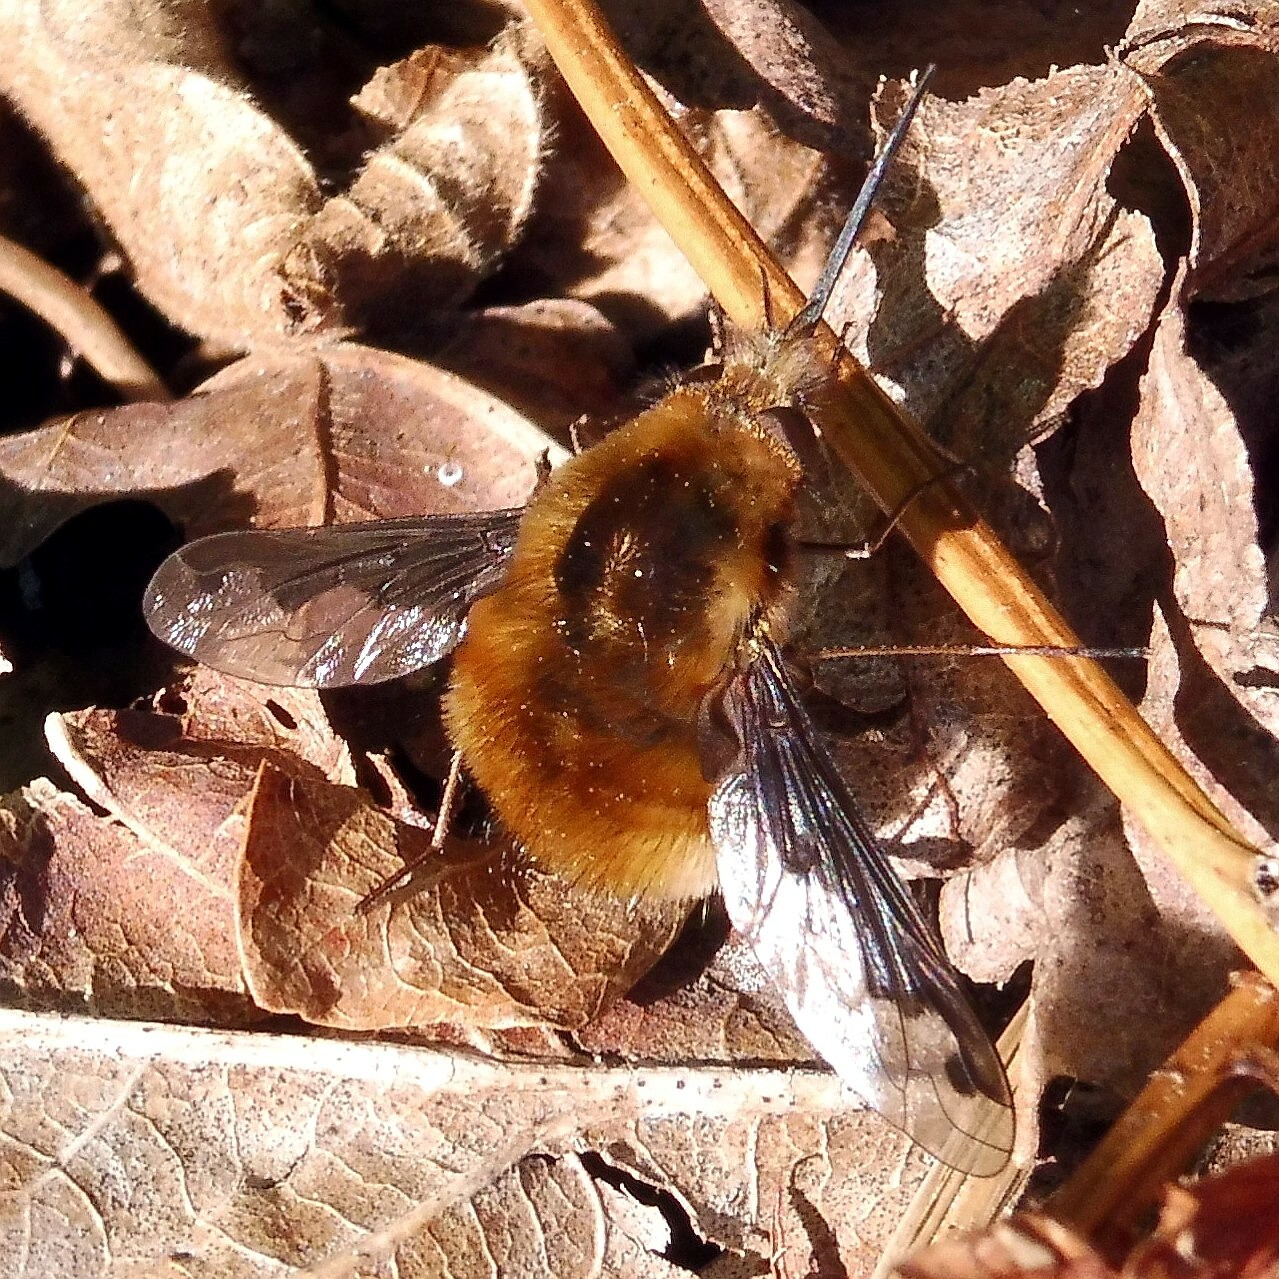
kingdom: Animalia
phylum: Arthropoda
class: Insecta
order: Diptera
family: Bombyliidae
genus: Bombylius
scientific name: Bombylius major
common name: Bee fly
